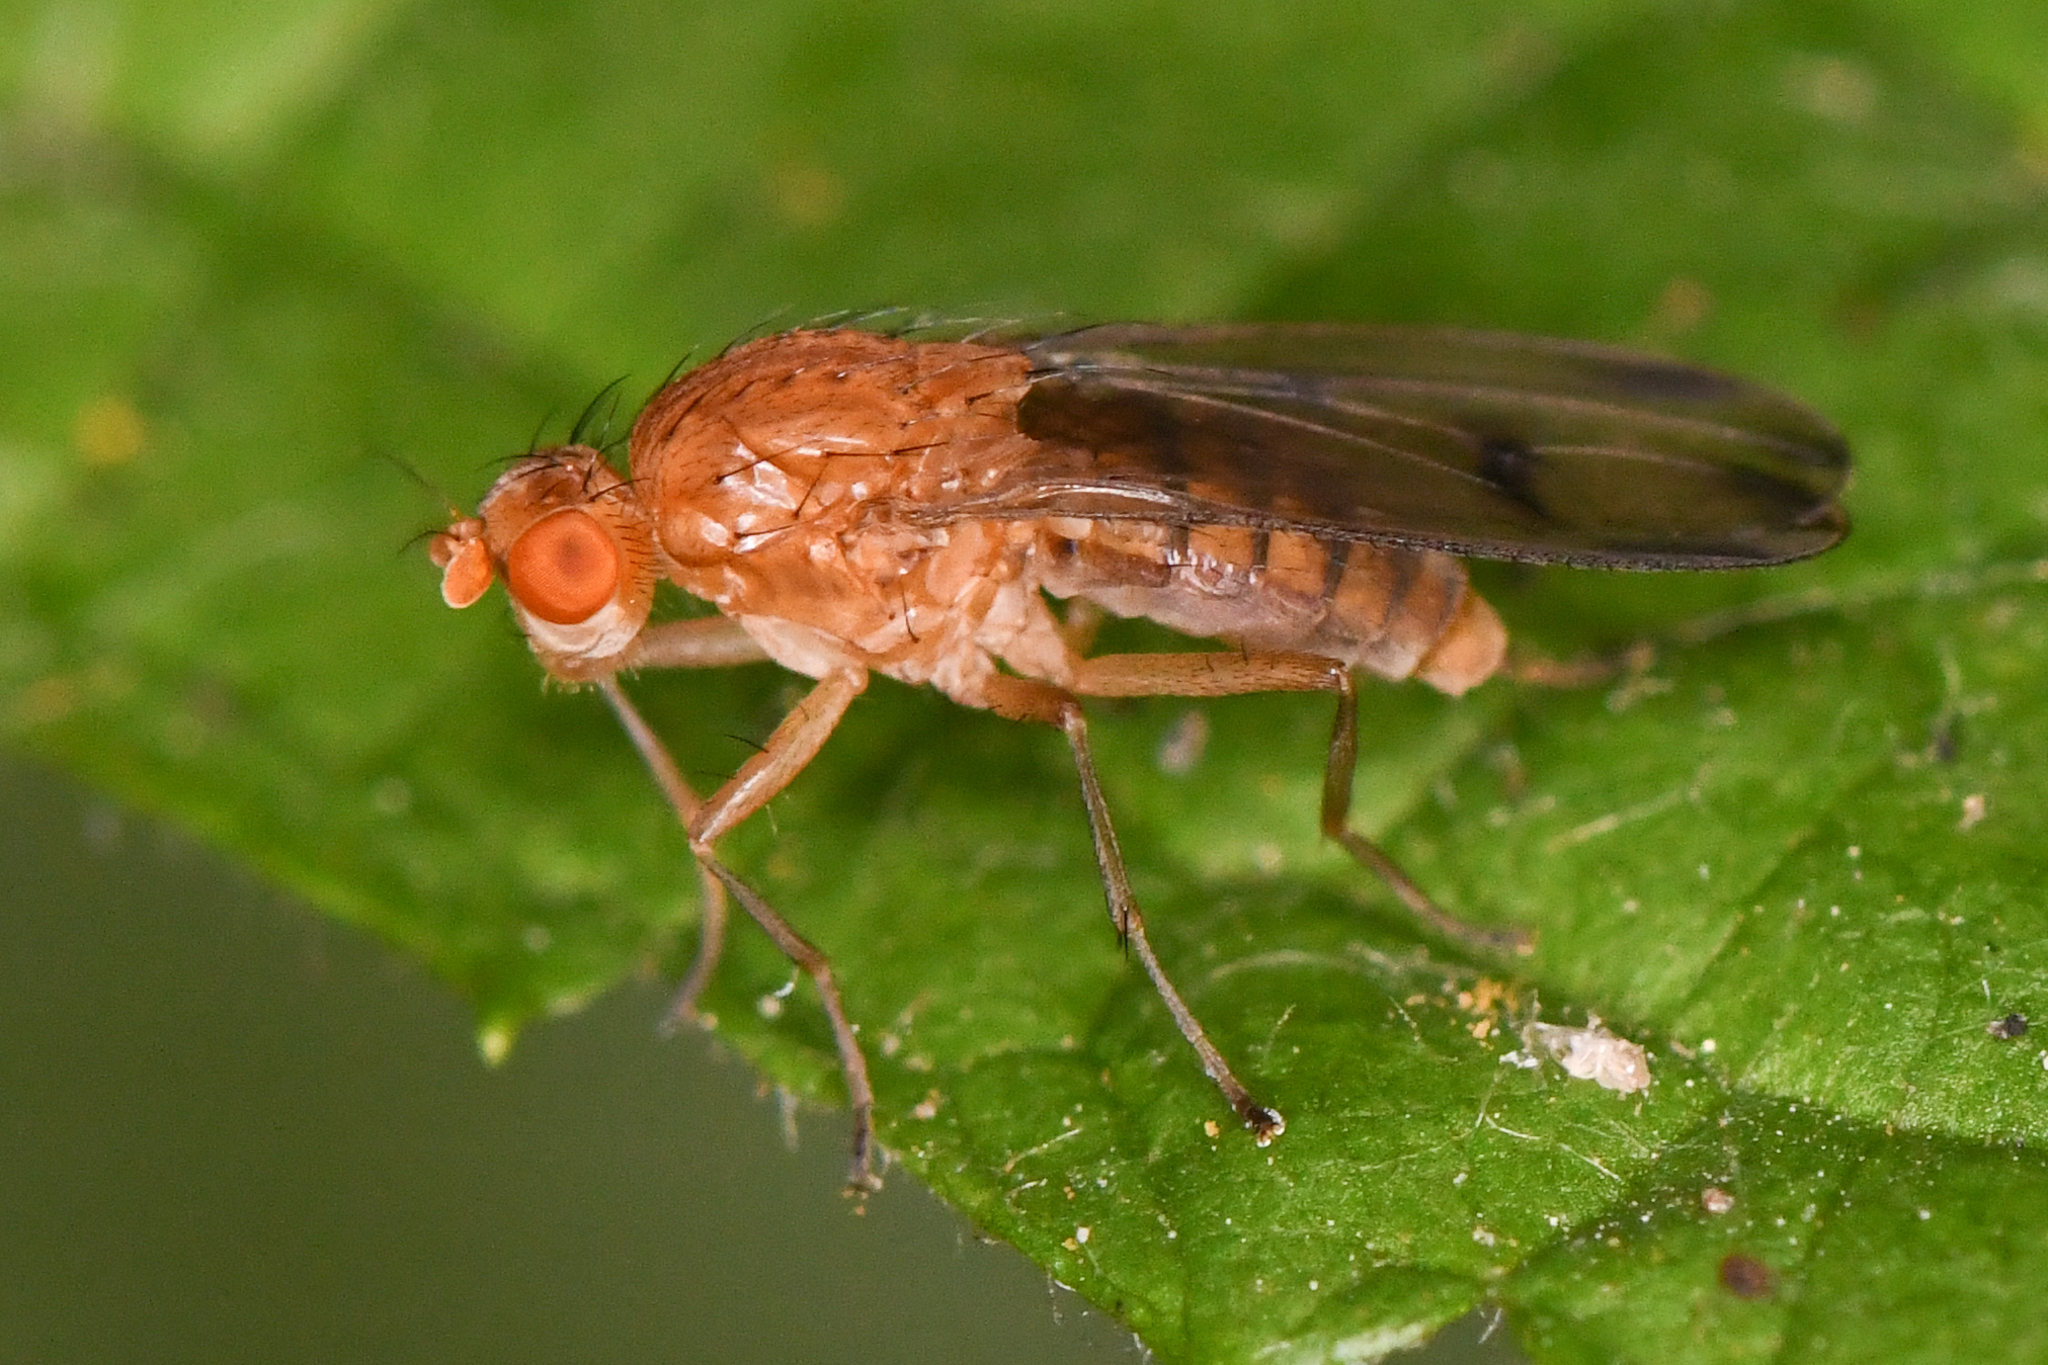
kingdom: Animalia
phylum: Arthropoda
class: Insecta
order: Diptera
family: Heleomyzidae
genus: Suillia
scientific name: Suillia plumata
